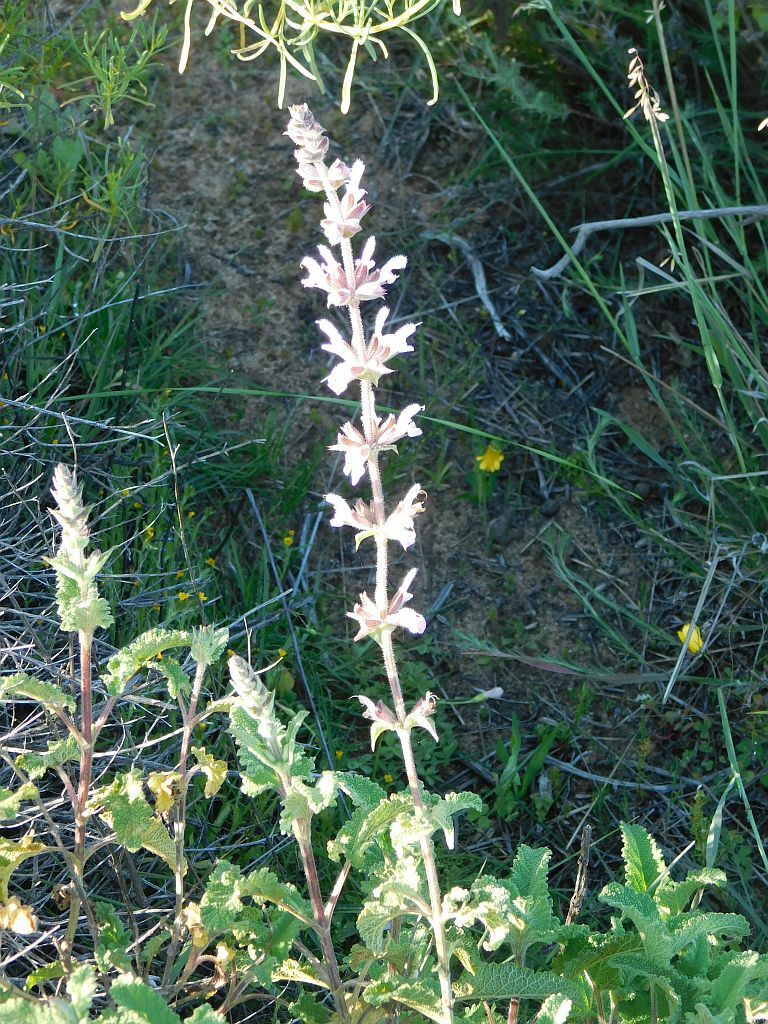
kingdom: Plantae
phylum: Tracheophyta
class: Magnoliopsida
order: Lamiales
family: Lamiaceae
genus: Salvia
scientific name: Salvia disermas
